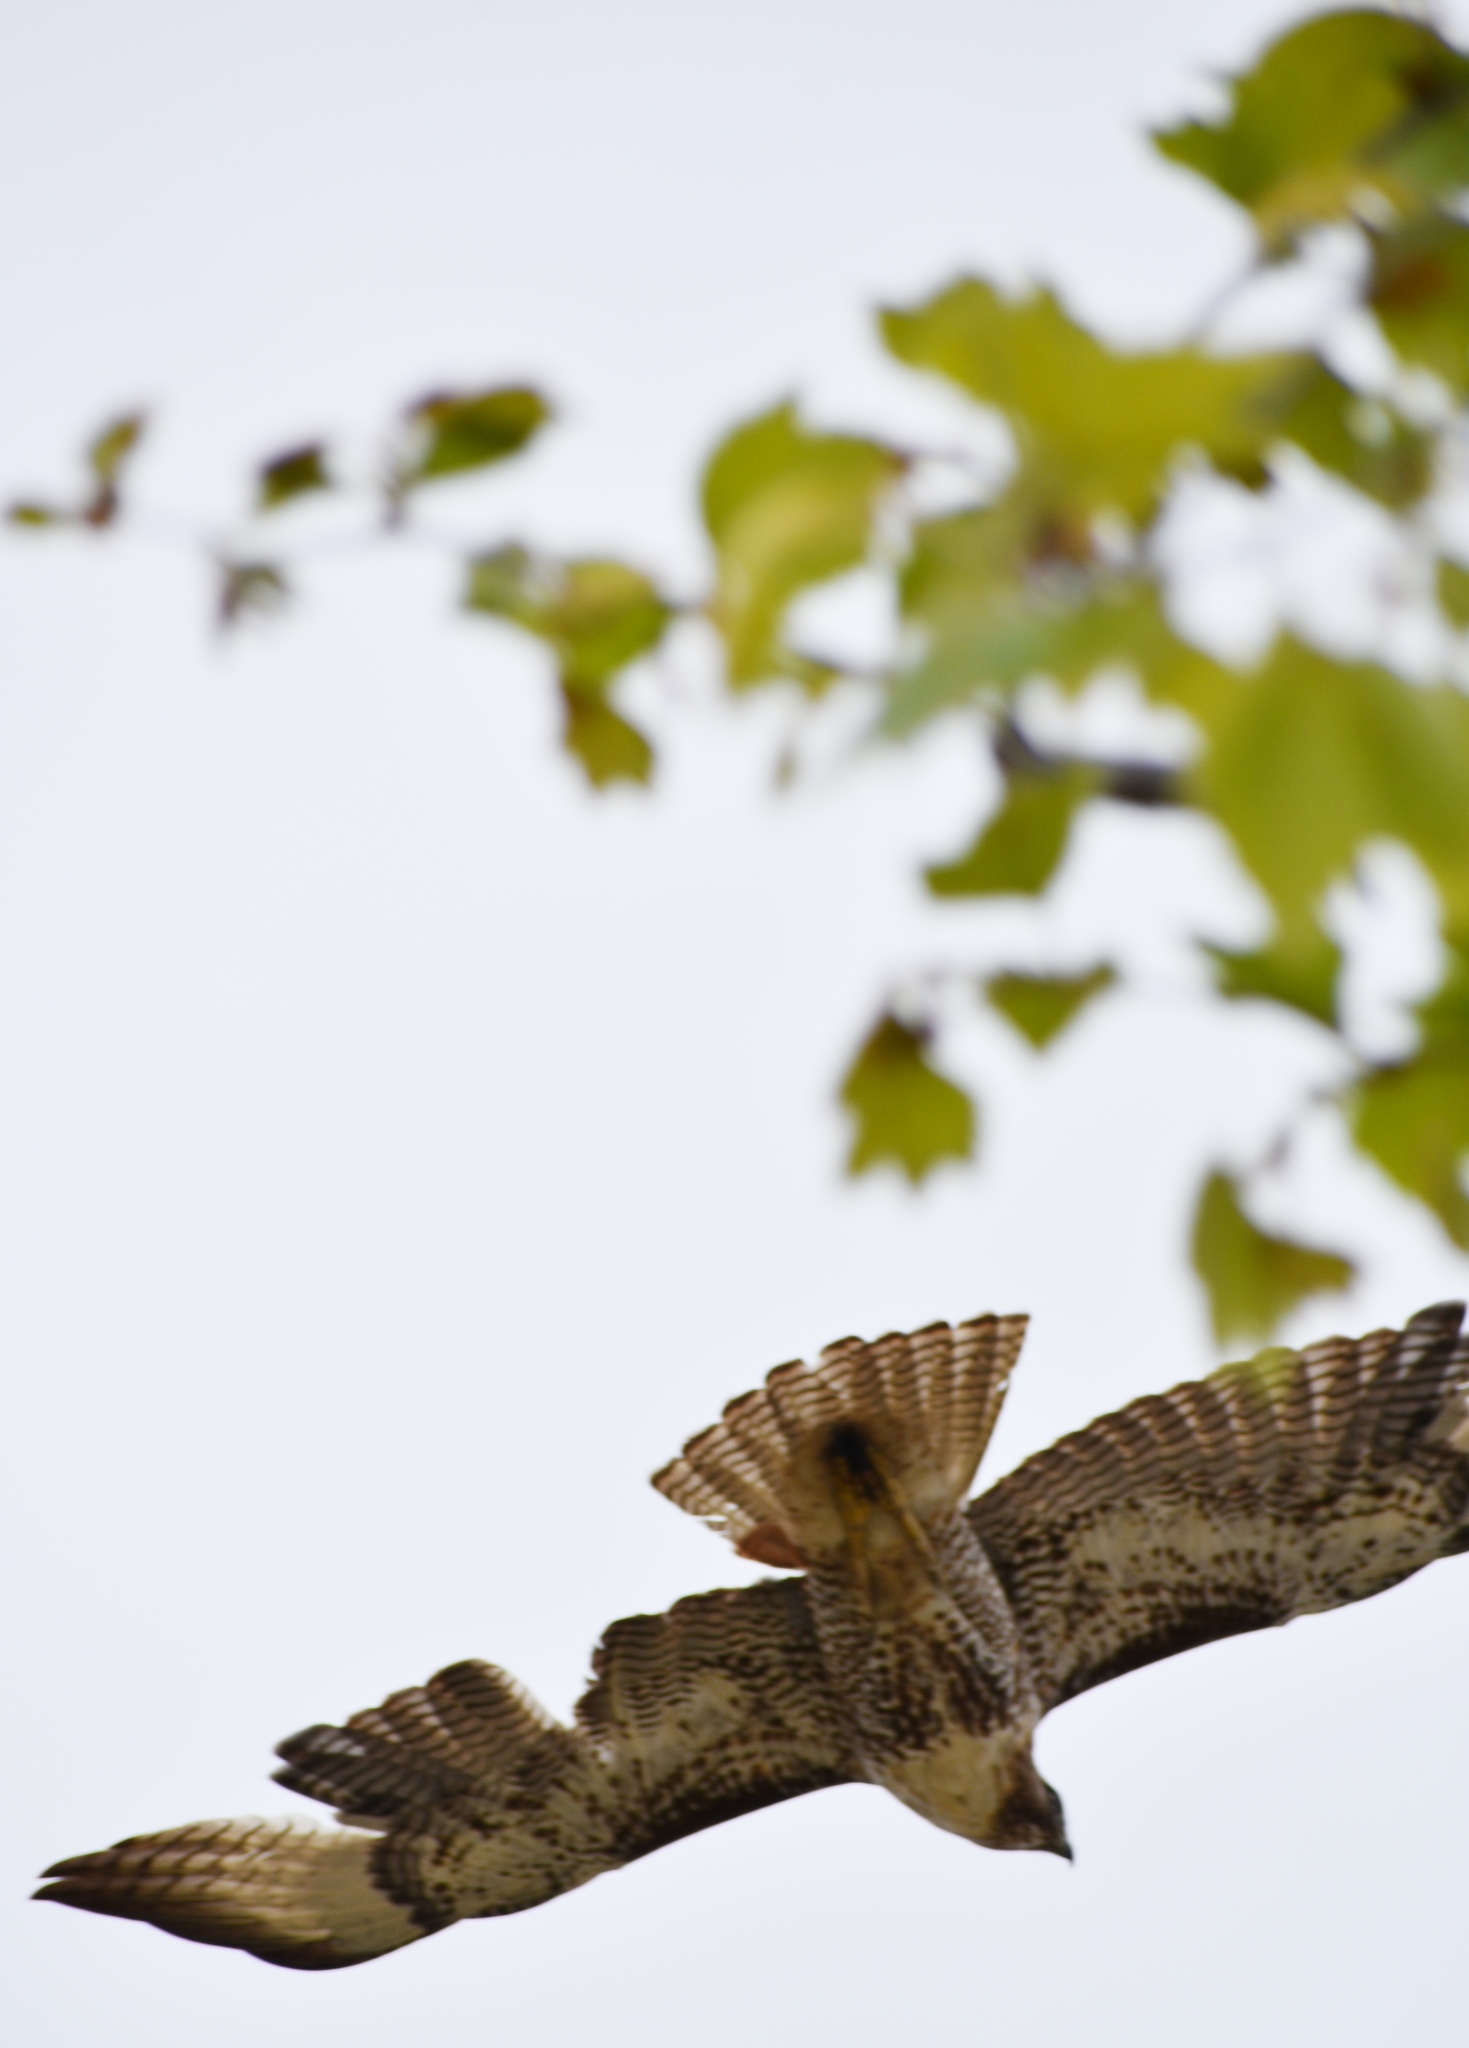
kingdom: Animalia
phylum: Chordata
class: Aves
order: Accipitriformes
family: Accipitridae
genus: Buteo
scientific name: Buteo jamaicensis
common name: Red-tailed hawk
